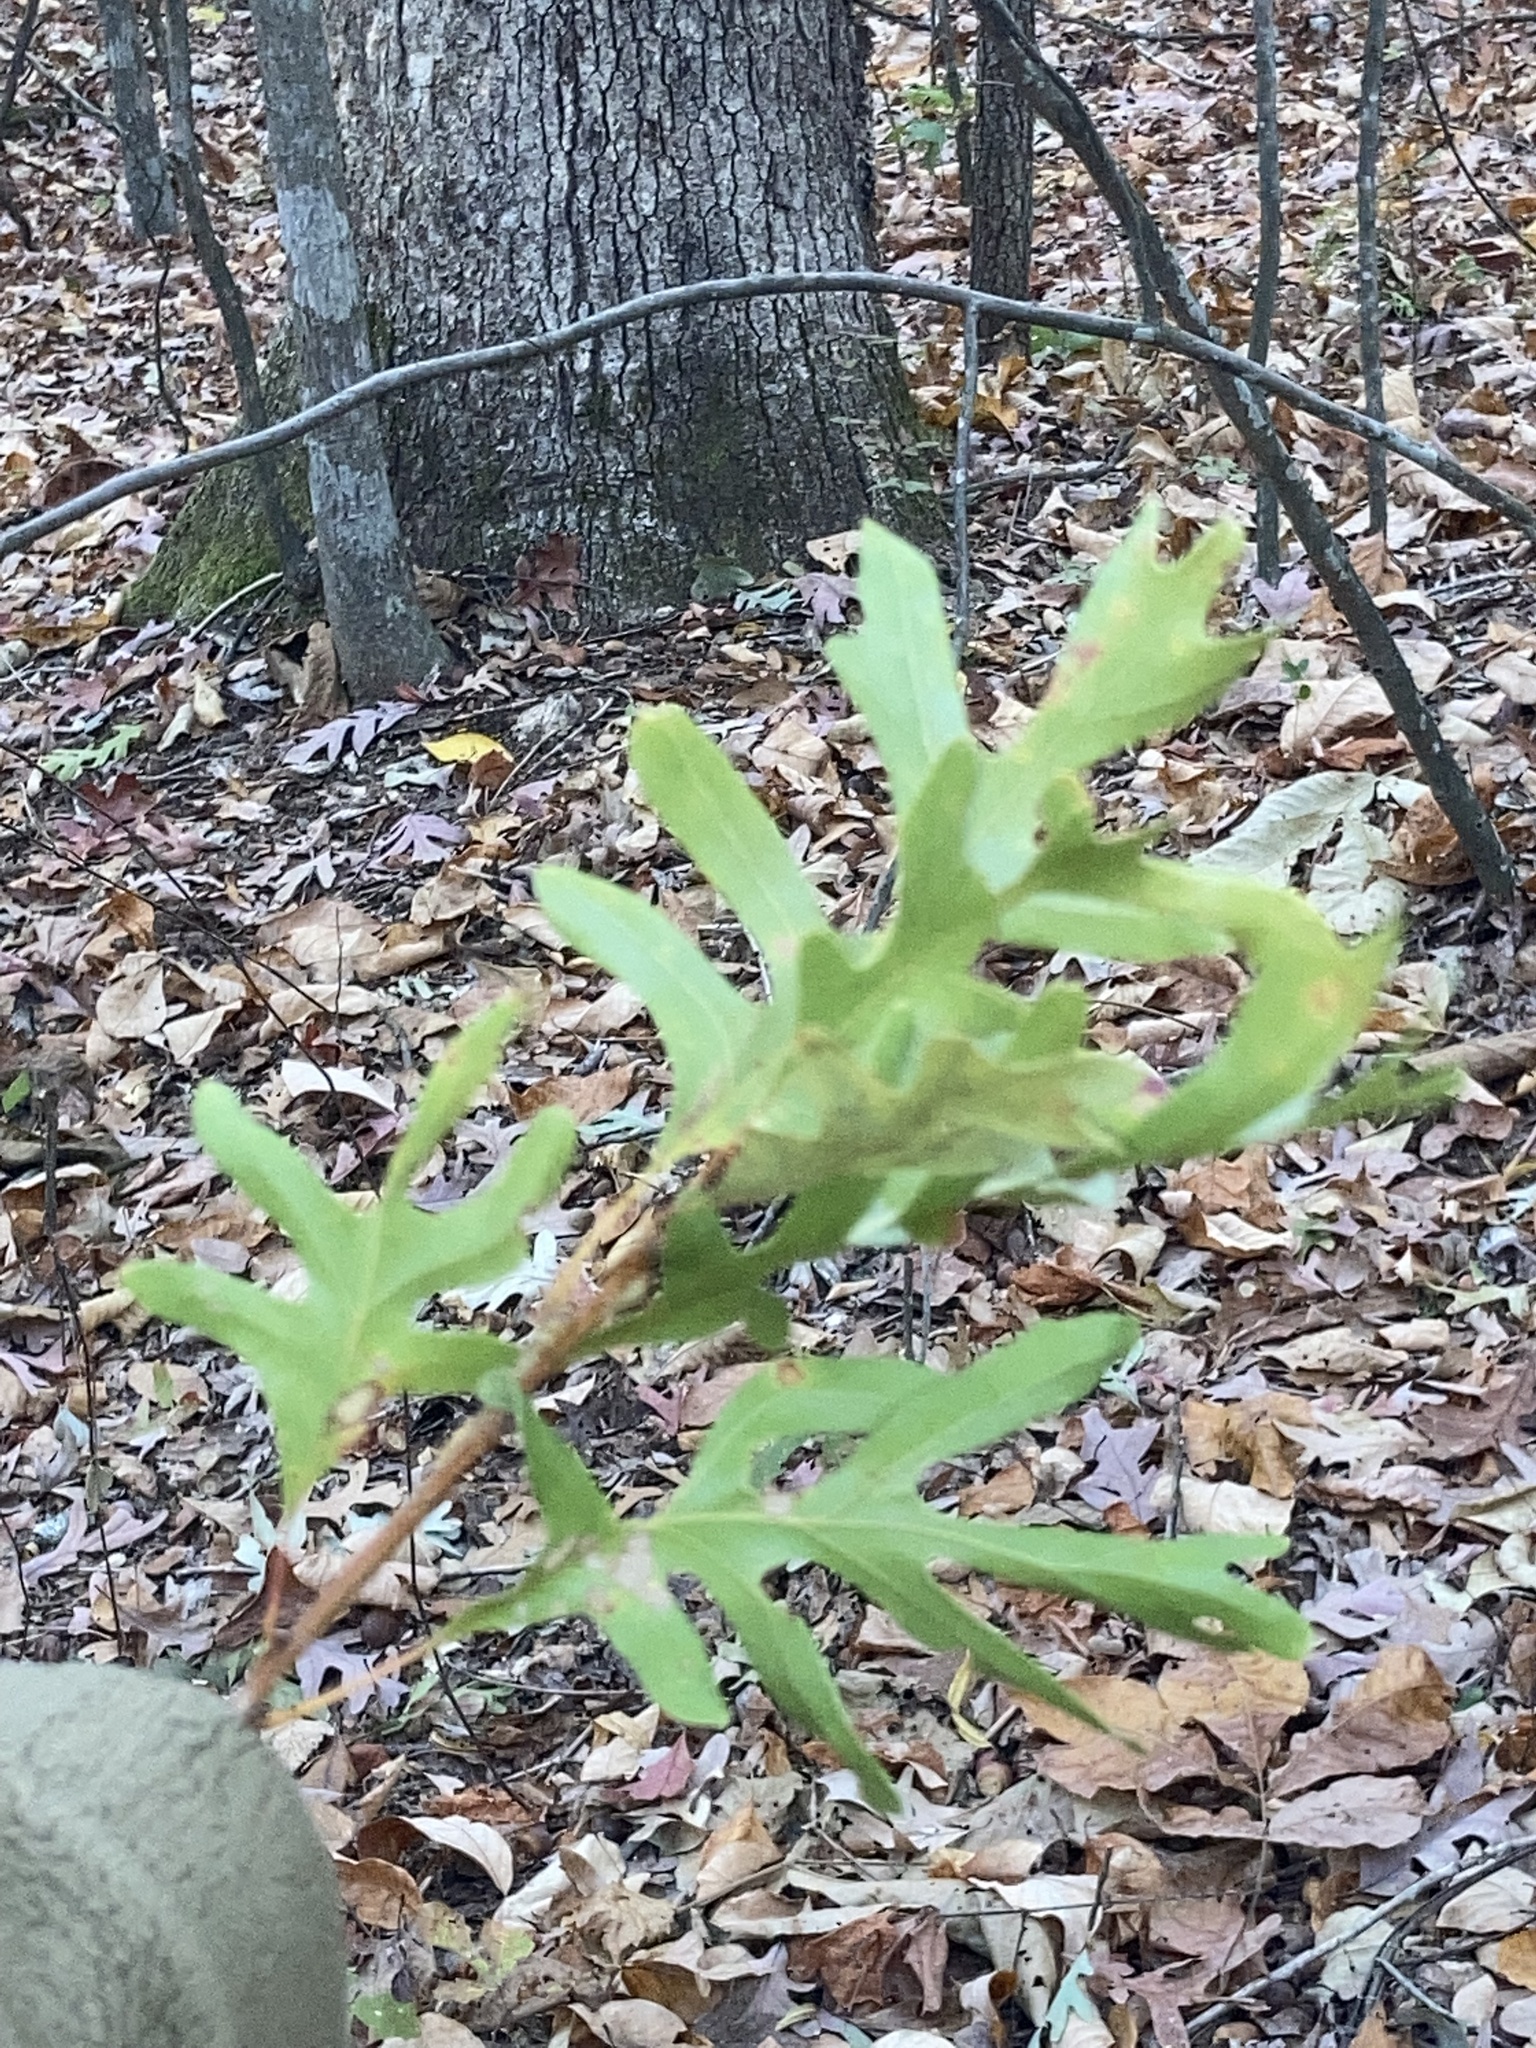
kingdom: Plantae
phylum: Tracheophyta
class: Magnoliopsida
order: Fagales
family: Fagaceae
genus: Quercus
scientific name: Quercus alba
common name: White oak
